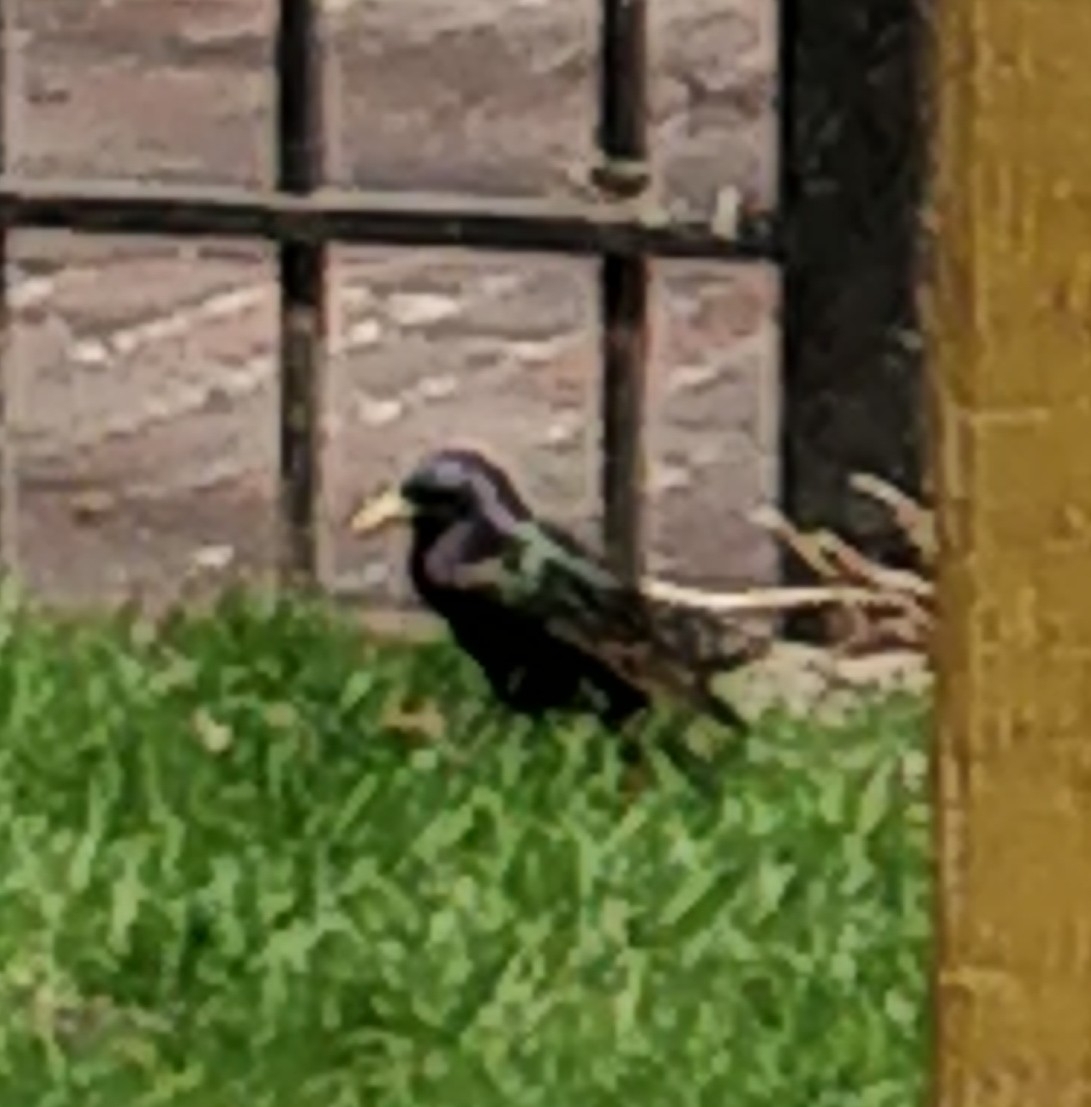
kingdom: Animalia
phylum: Chordata
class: Aves
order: Passeriformes
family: Sturnidae
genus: Sturnus
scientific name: Sturnus vulgaris
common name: Common starling
